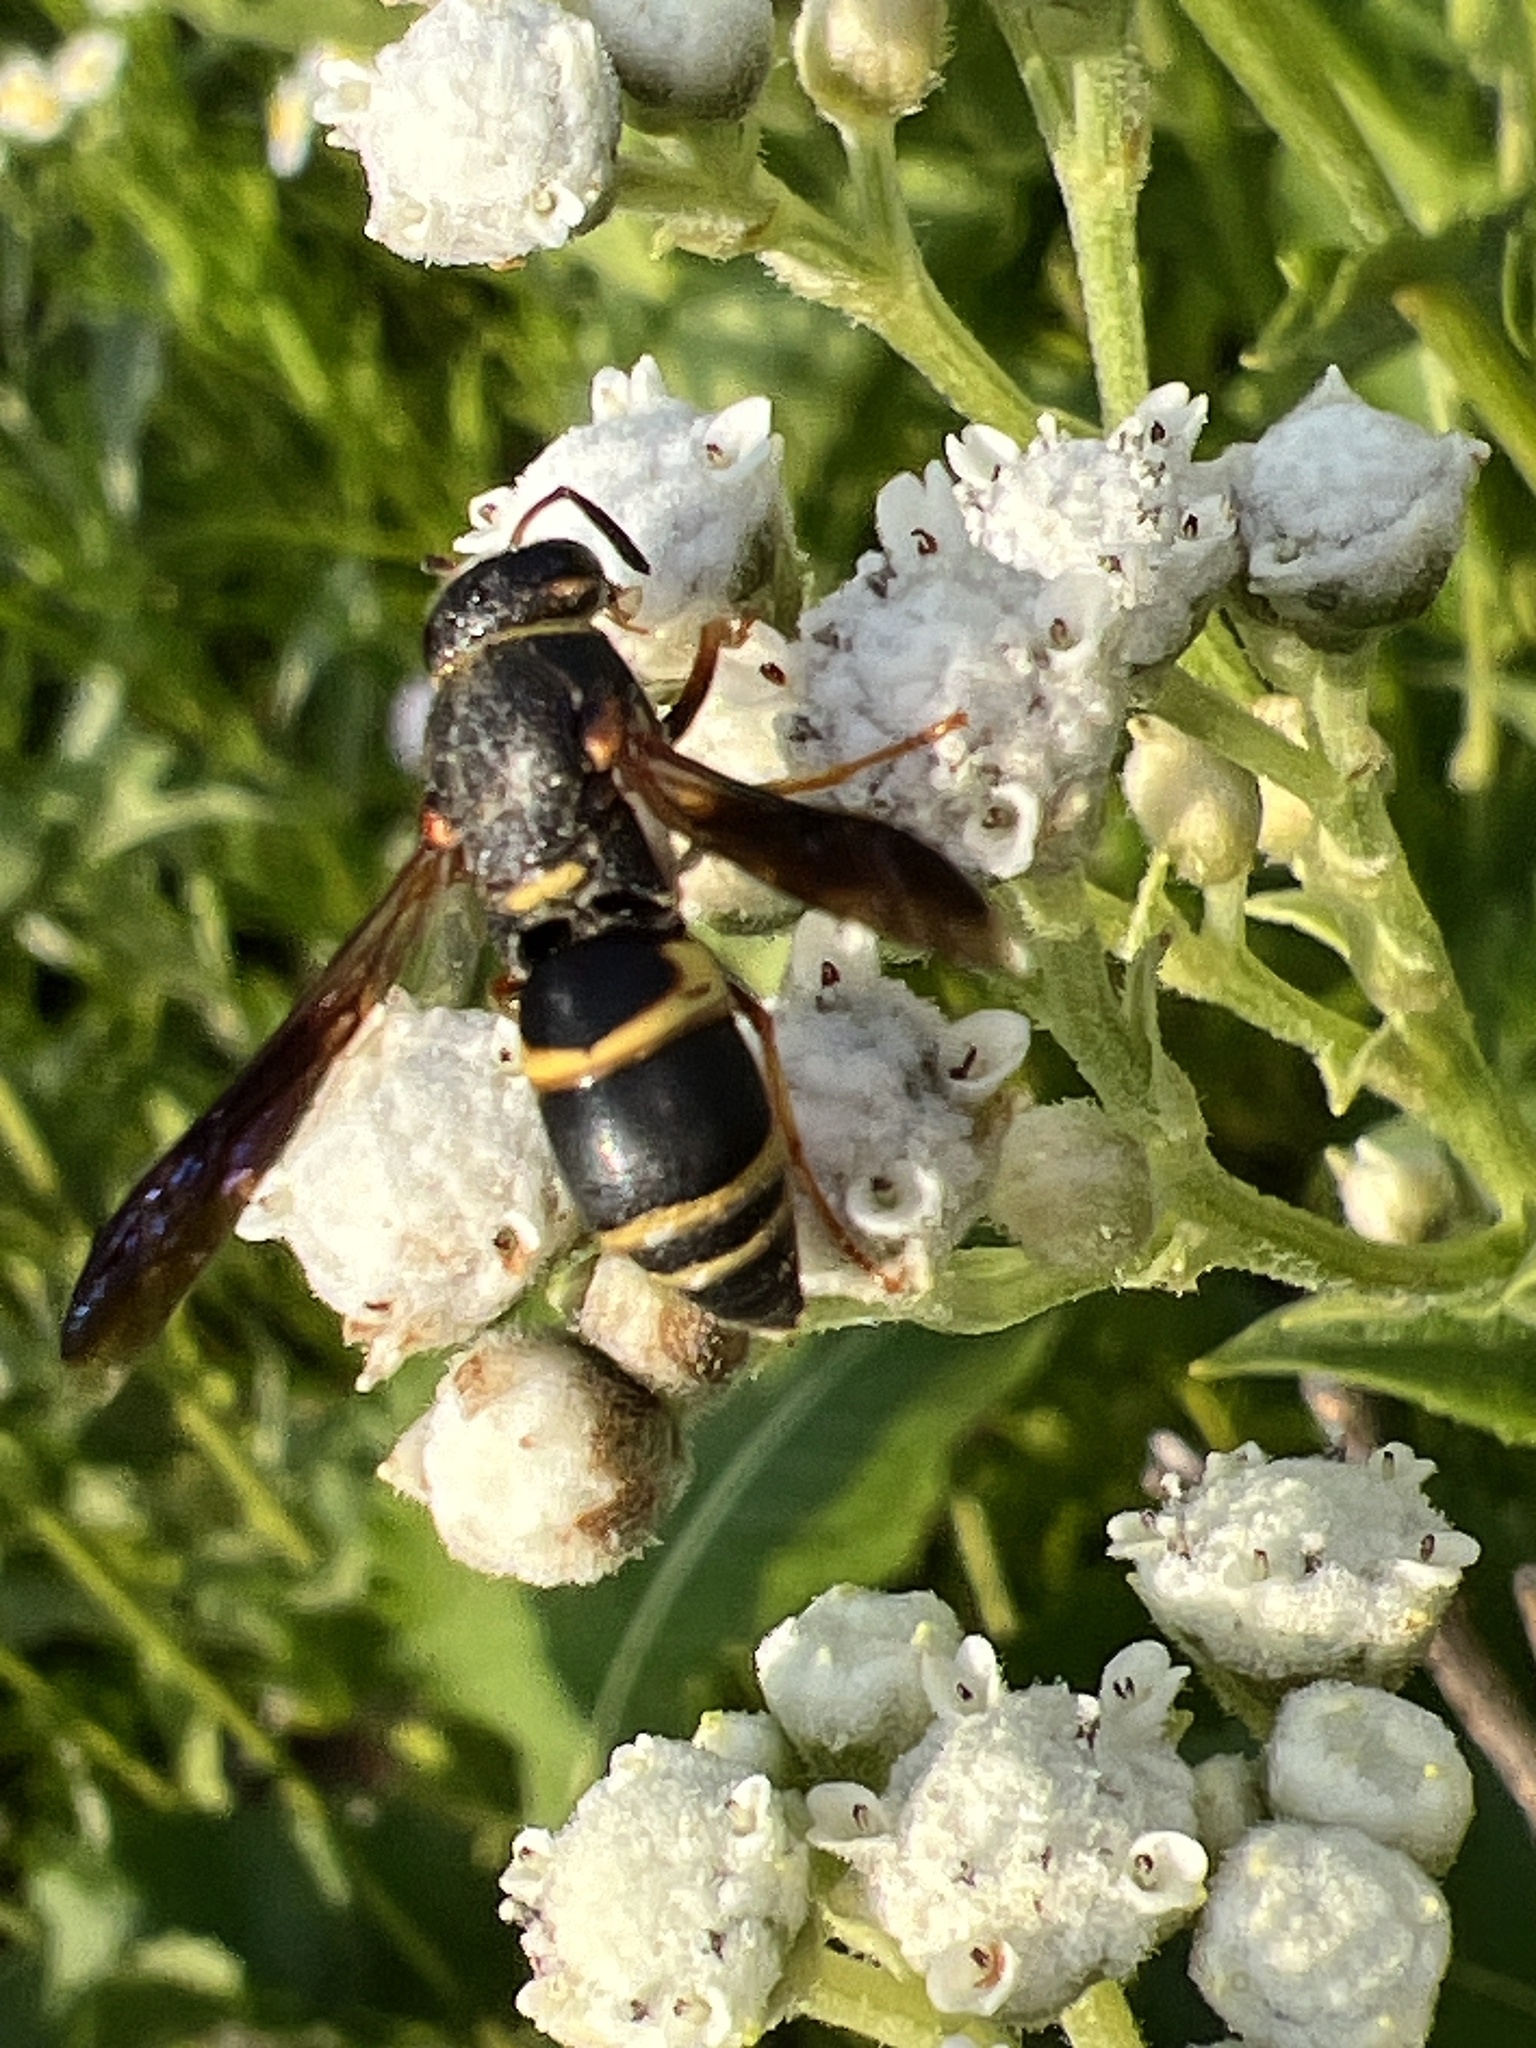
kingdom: Animalia
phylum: Arthropoda
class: Insecta
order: Hymenoptera
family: Eumenidae
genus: Euodynerus
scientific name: Euodynerus hidalgo
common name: Wasp
